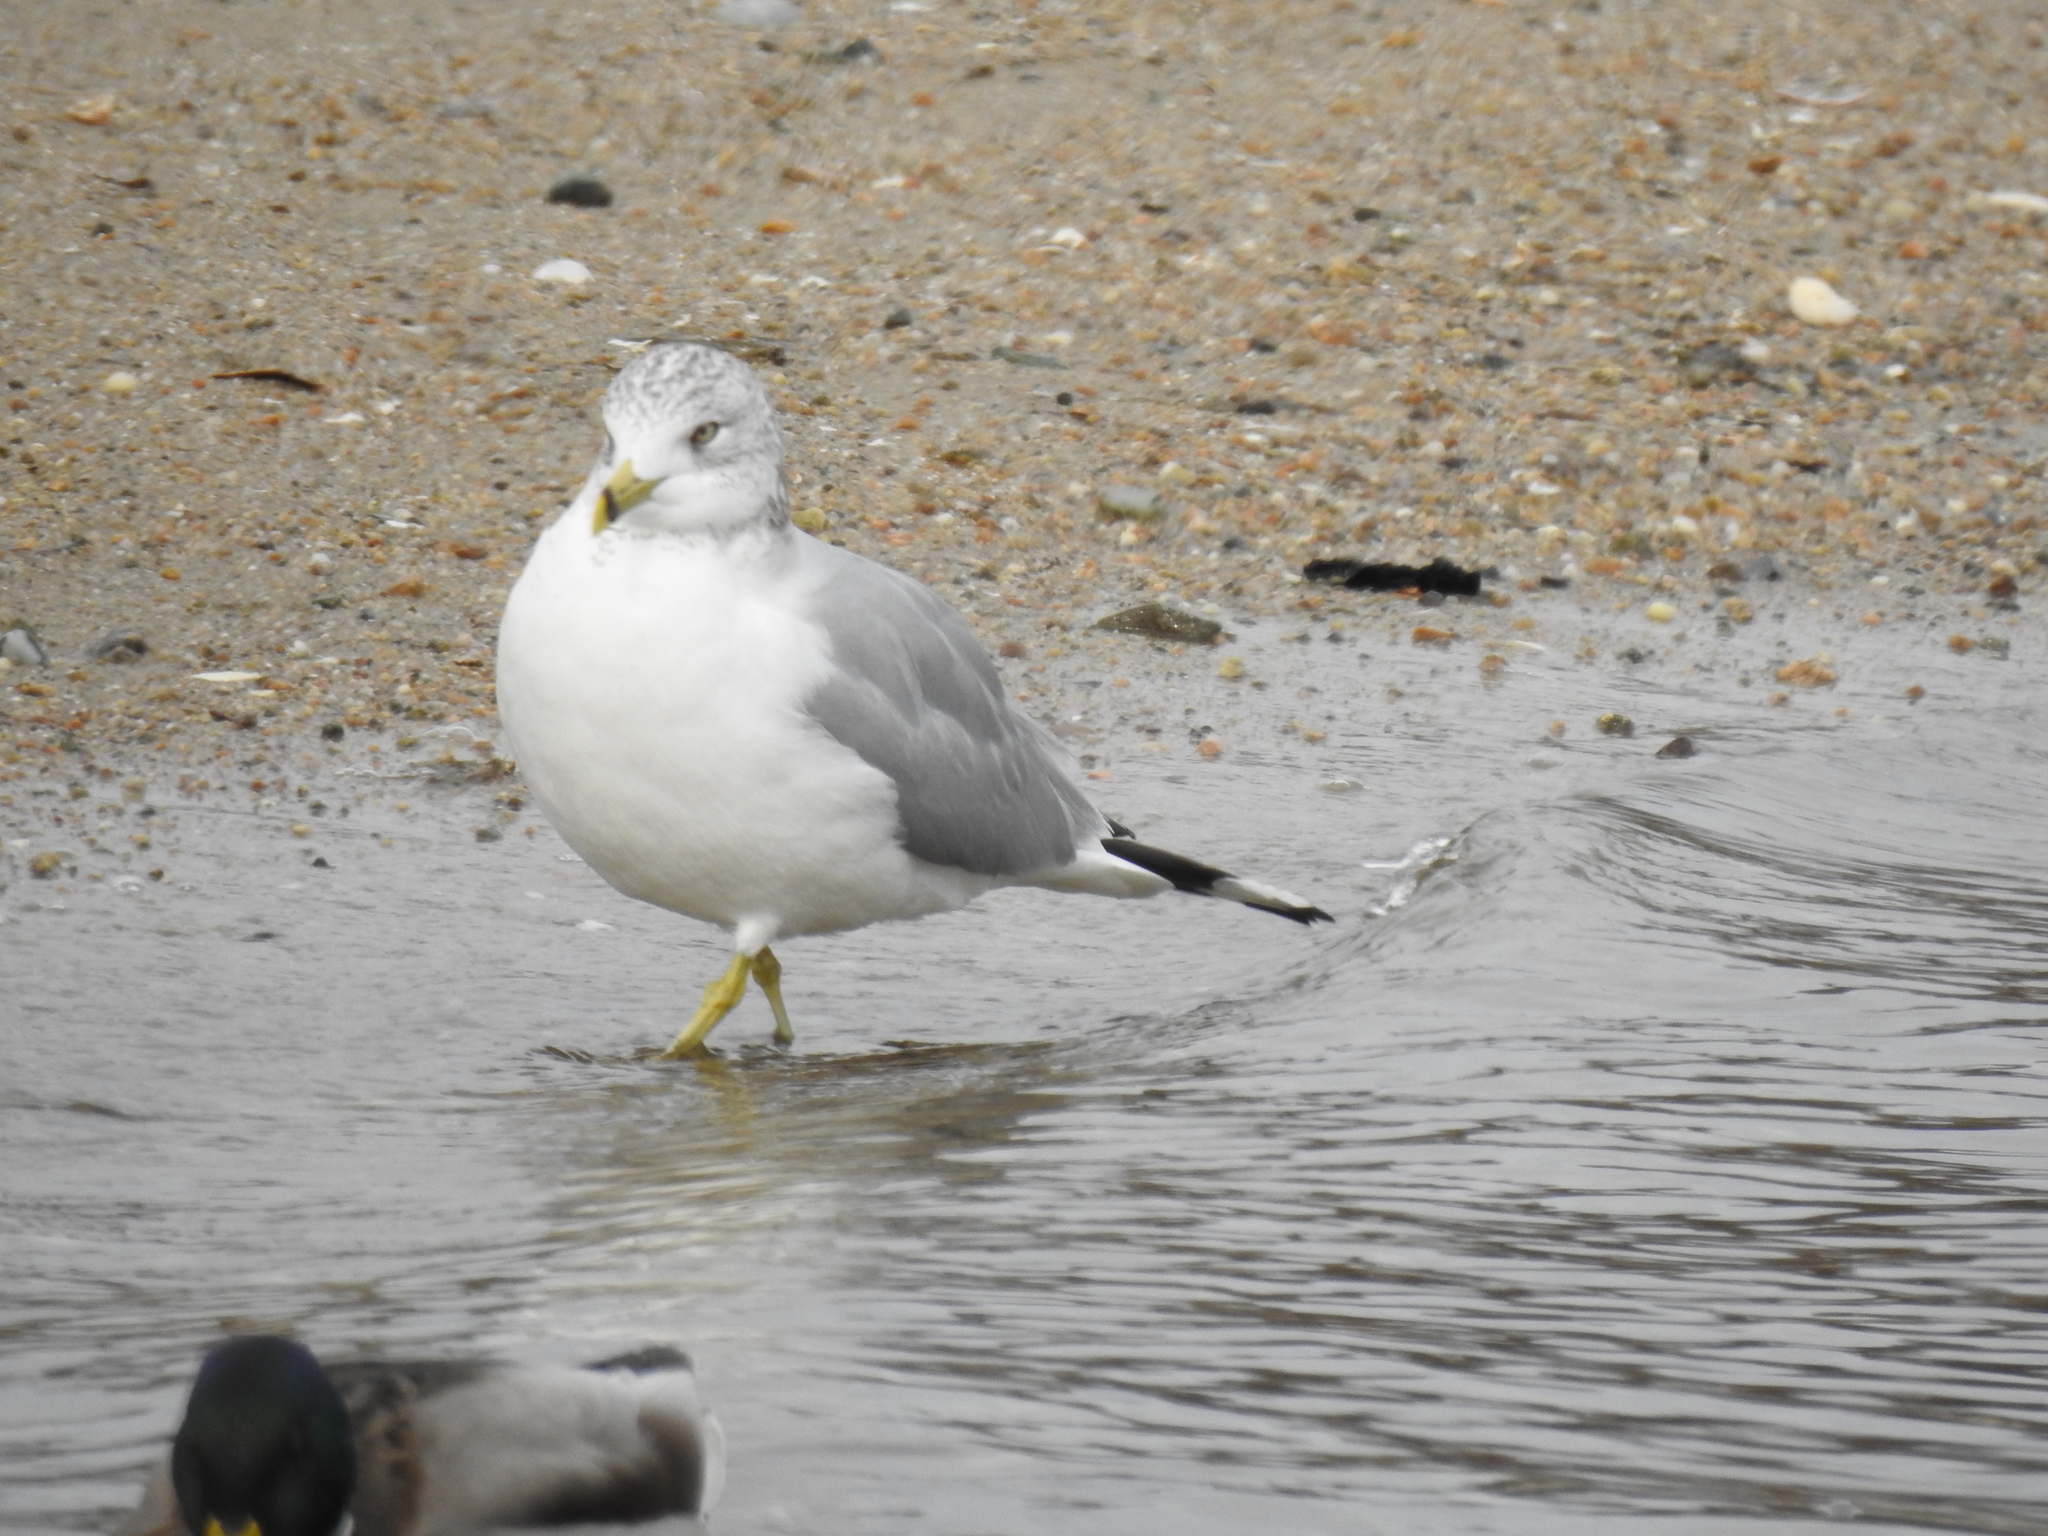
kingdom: Animalia
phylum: Chordata
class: Aves
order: Charadriiformes
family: Laridae
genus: Larus
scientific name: Larus delawarensis
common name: Ring-billed gull
